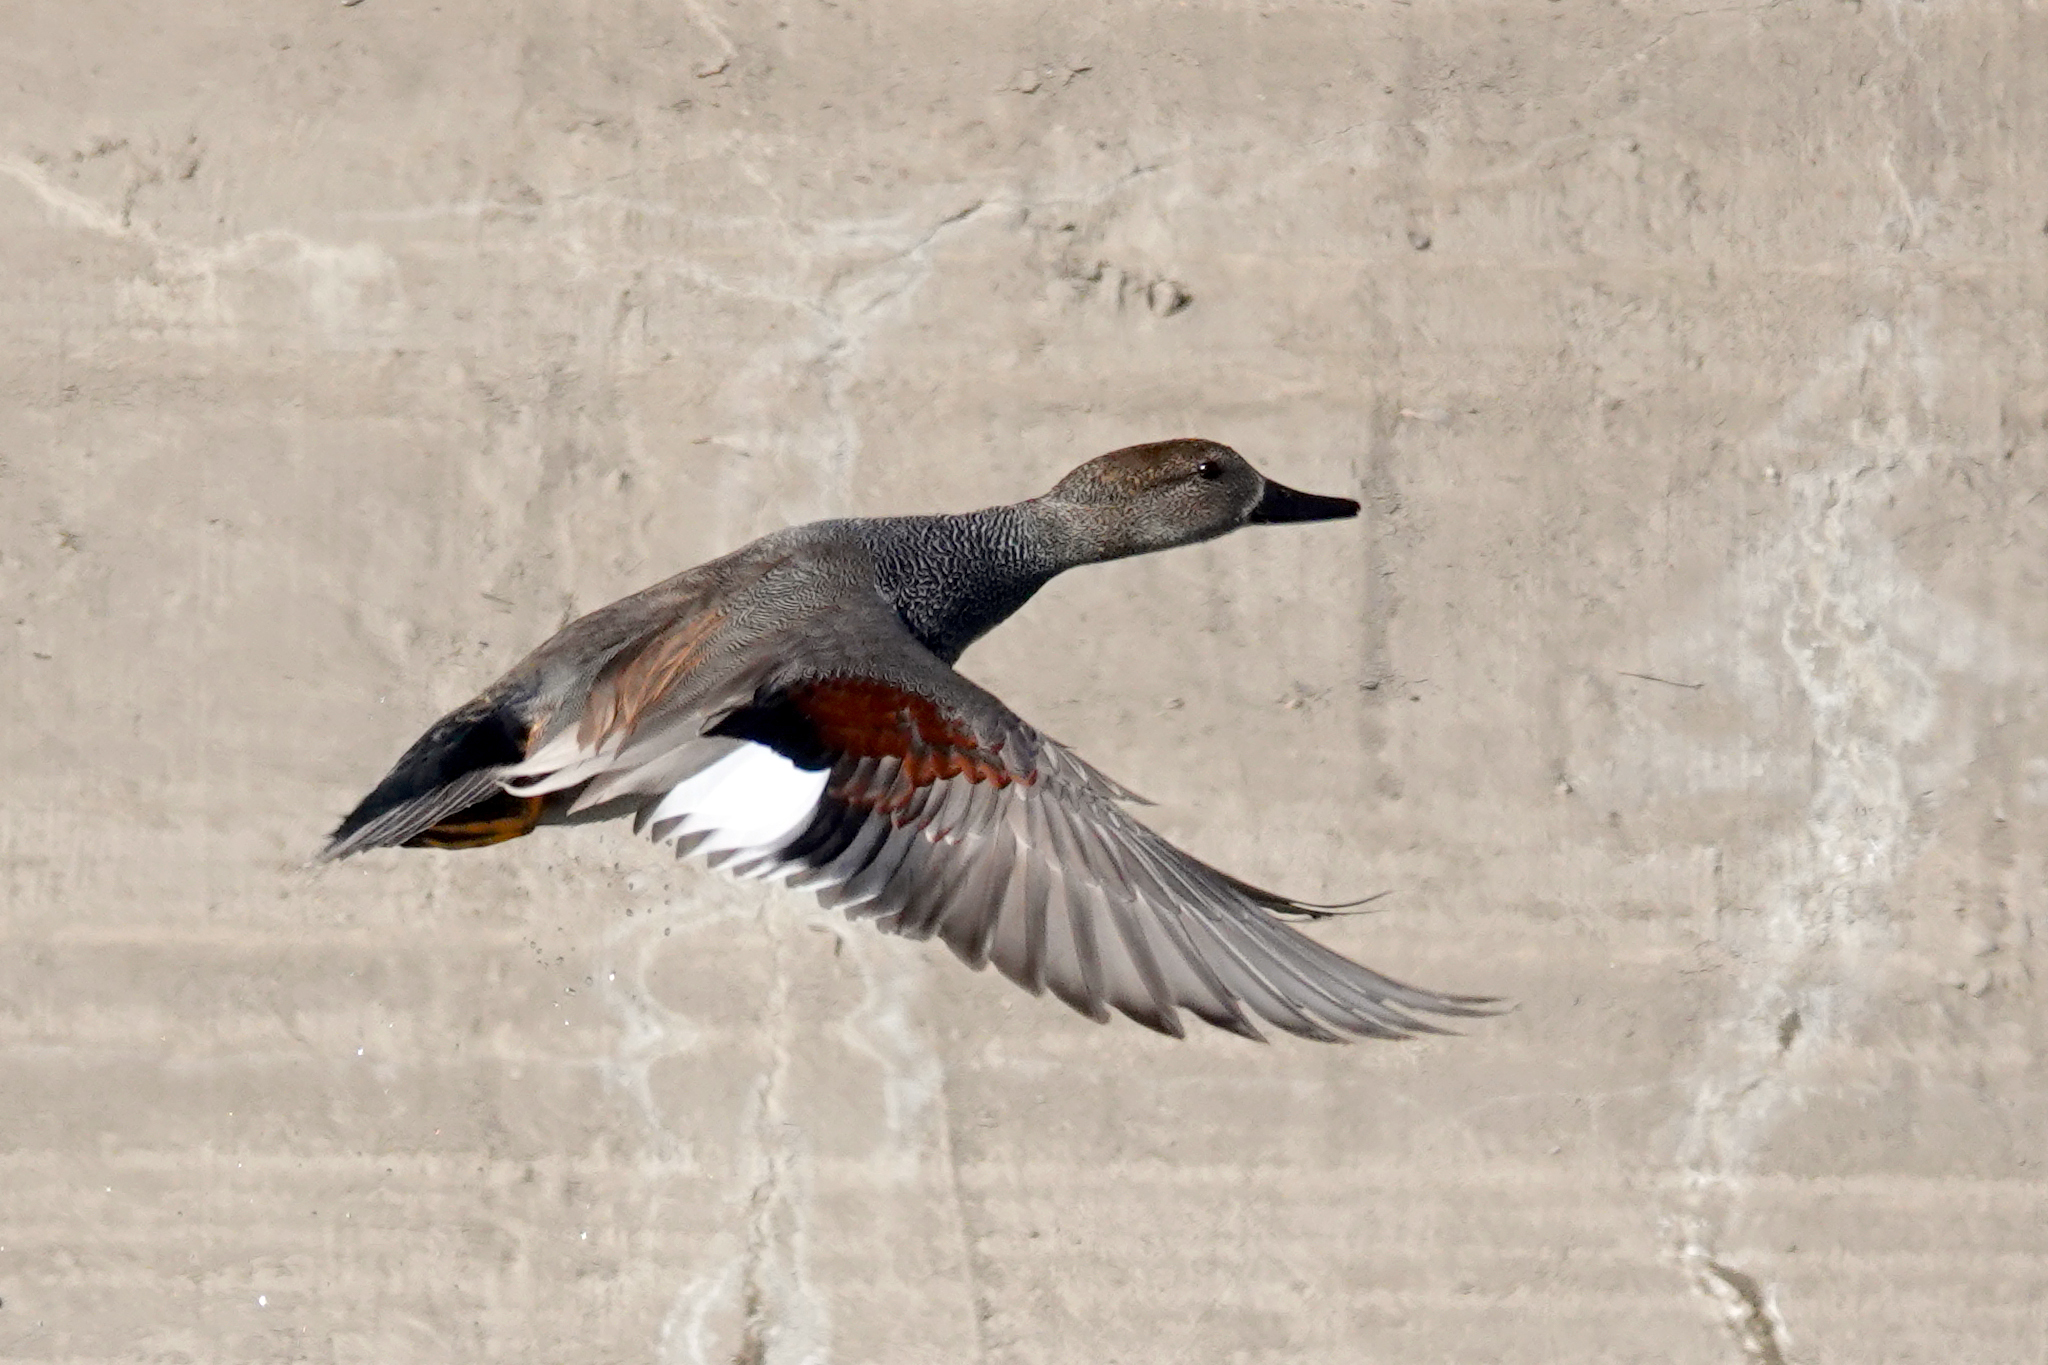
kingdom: Animalia
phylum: Chordata
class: Aves
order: Anseriformes
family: Anatidae
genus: Mareca
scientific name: Mareca strepera
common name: Gadwall
